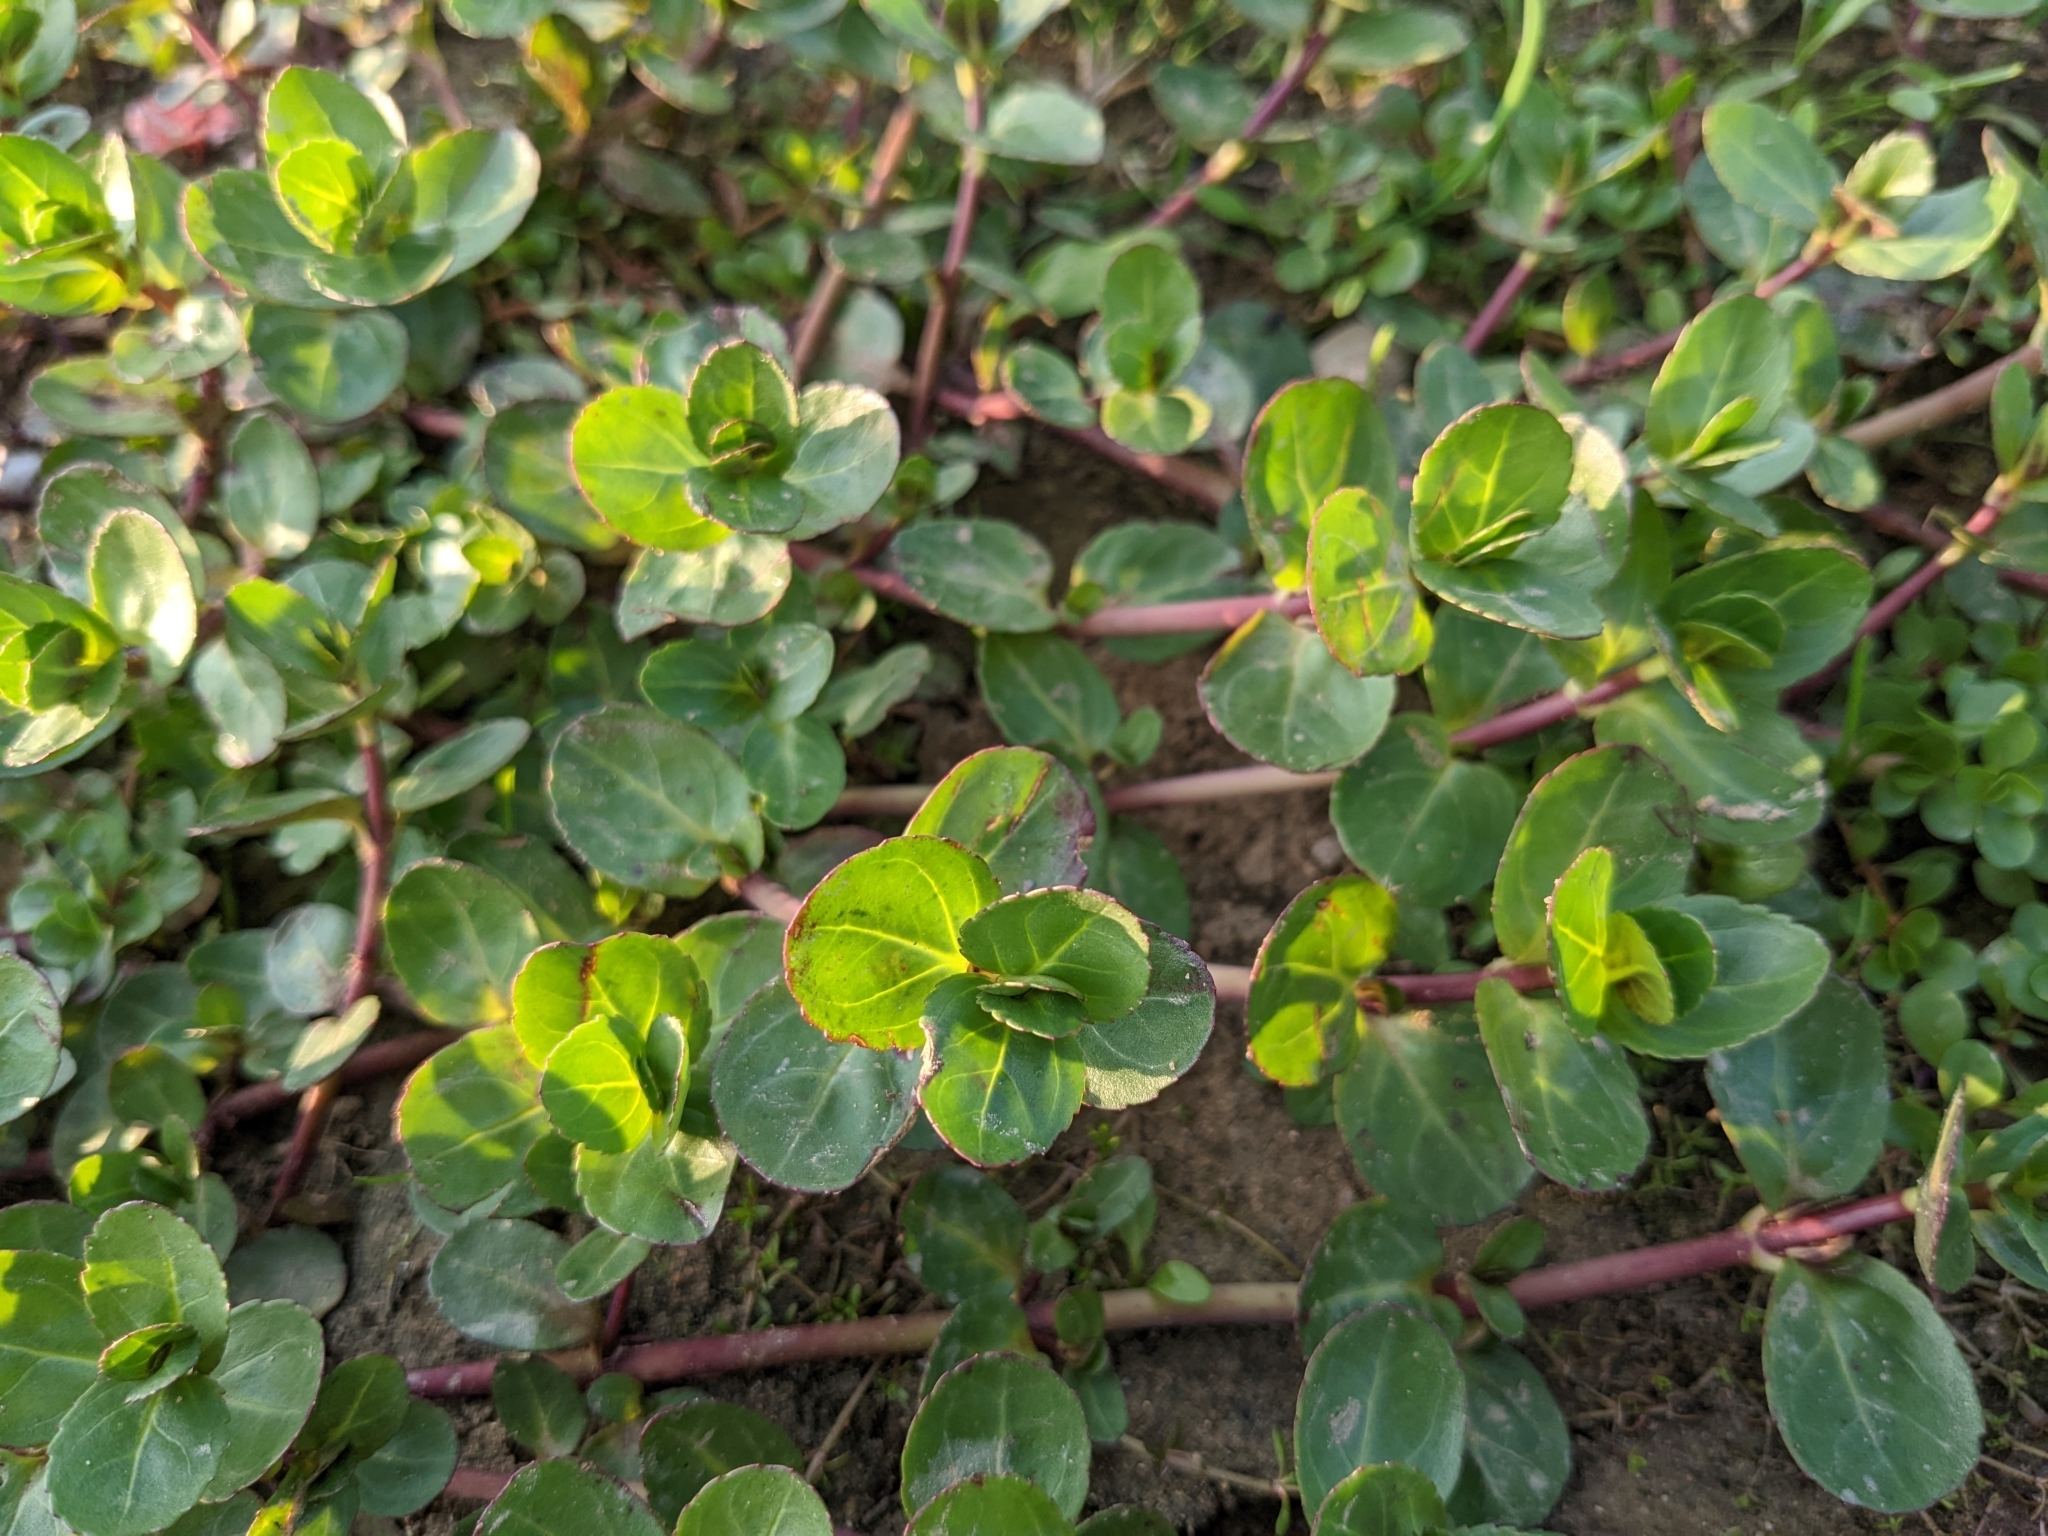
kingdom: Plantae
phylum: Tracheophyta
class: Magnoliopsida
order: Lamiales
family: Plantaginaceae
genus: Veronica
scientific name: Veronica beccabunga
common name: Brooklime
